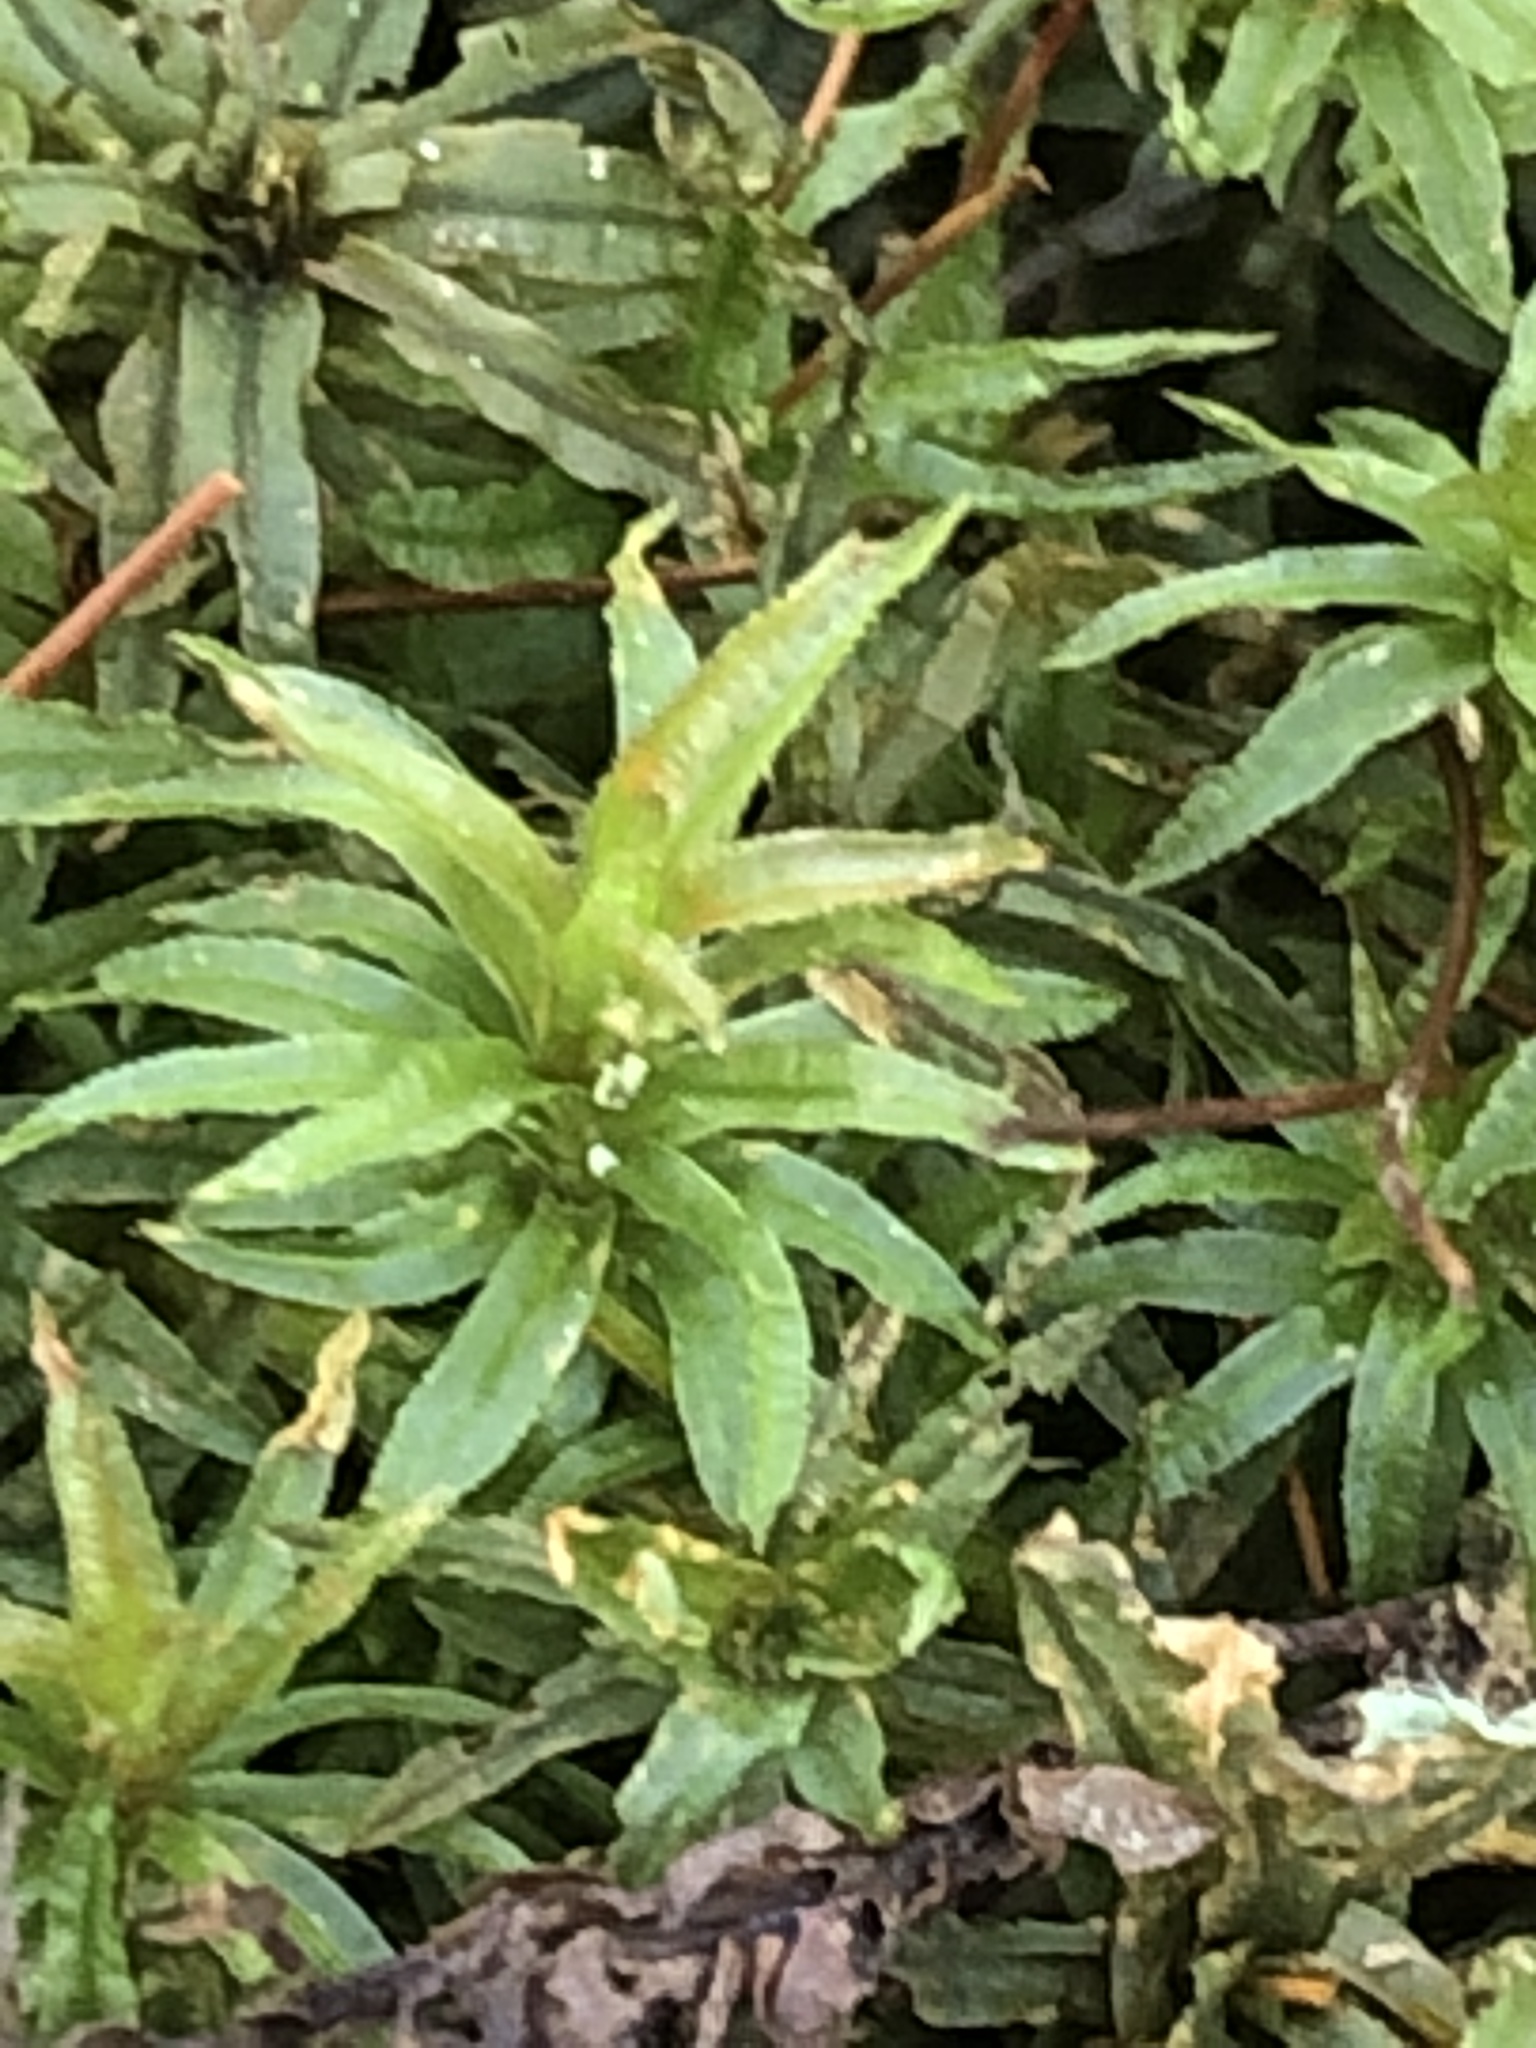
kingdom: Plantae
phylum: Bryophyta
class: Polytrichopsida
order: Polytrichales
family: Polytrichaceae
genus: Atrichum
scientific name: Atrichum undulatum
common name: Common smoothcap
